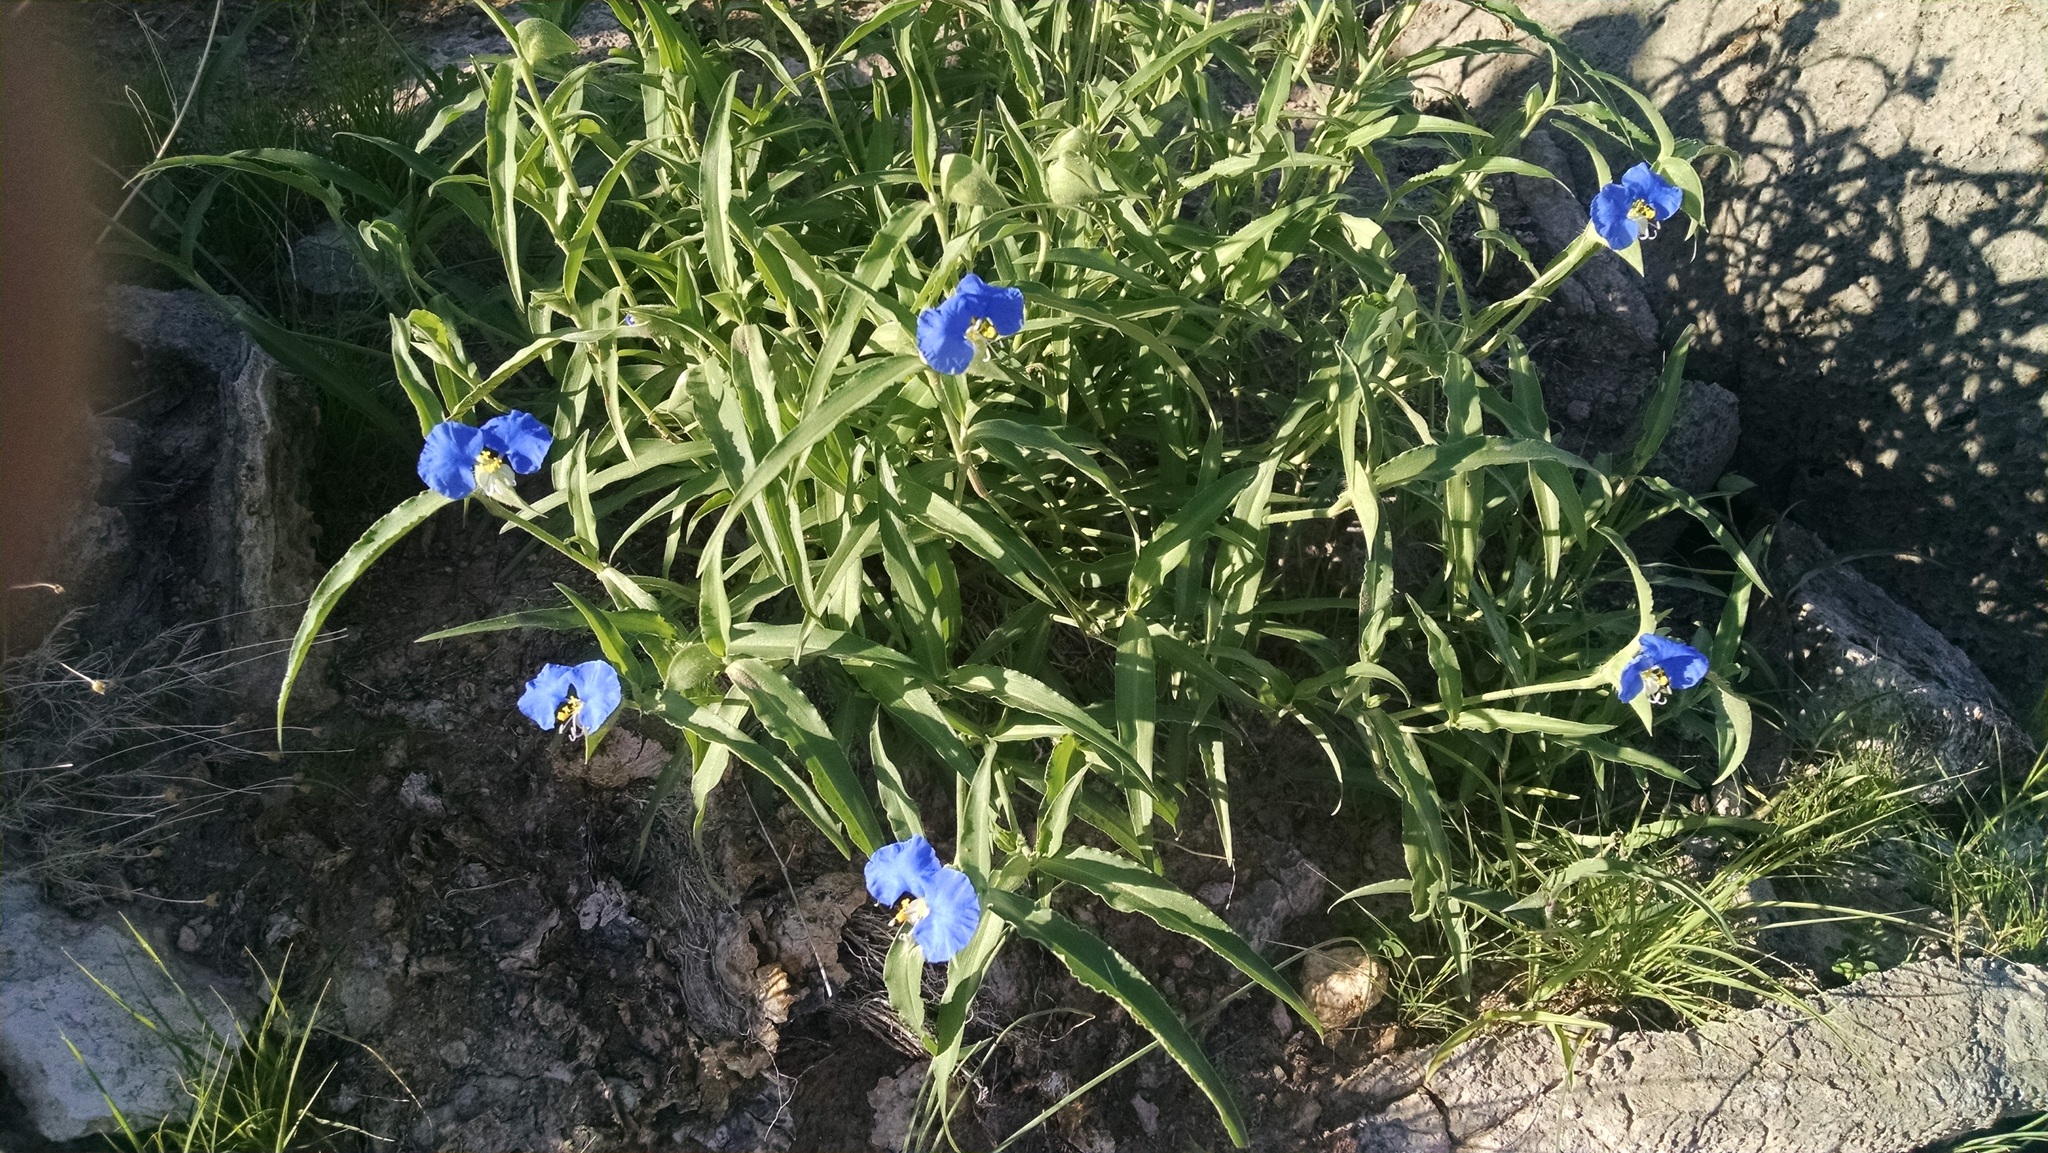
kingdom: Plantae
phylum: Tracheophyta
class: Liliopsida
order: Commelinales
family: Commelinaceae
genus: Commelina
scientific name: Commelina erecta
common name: Blousel blommetjie
